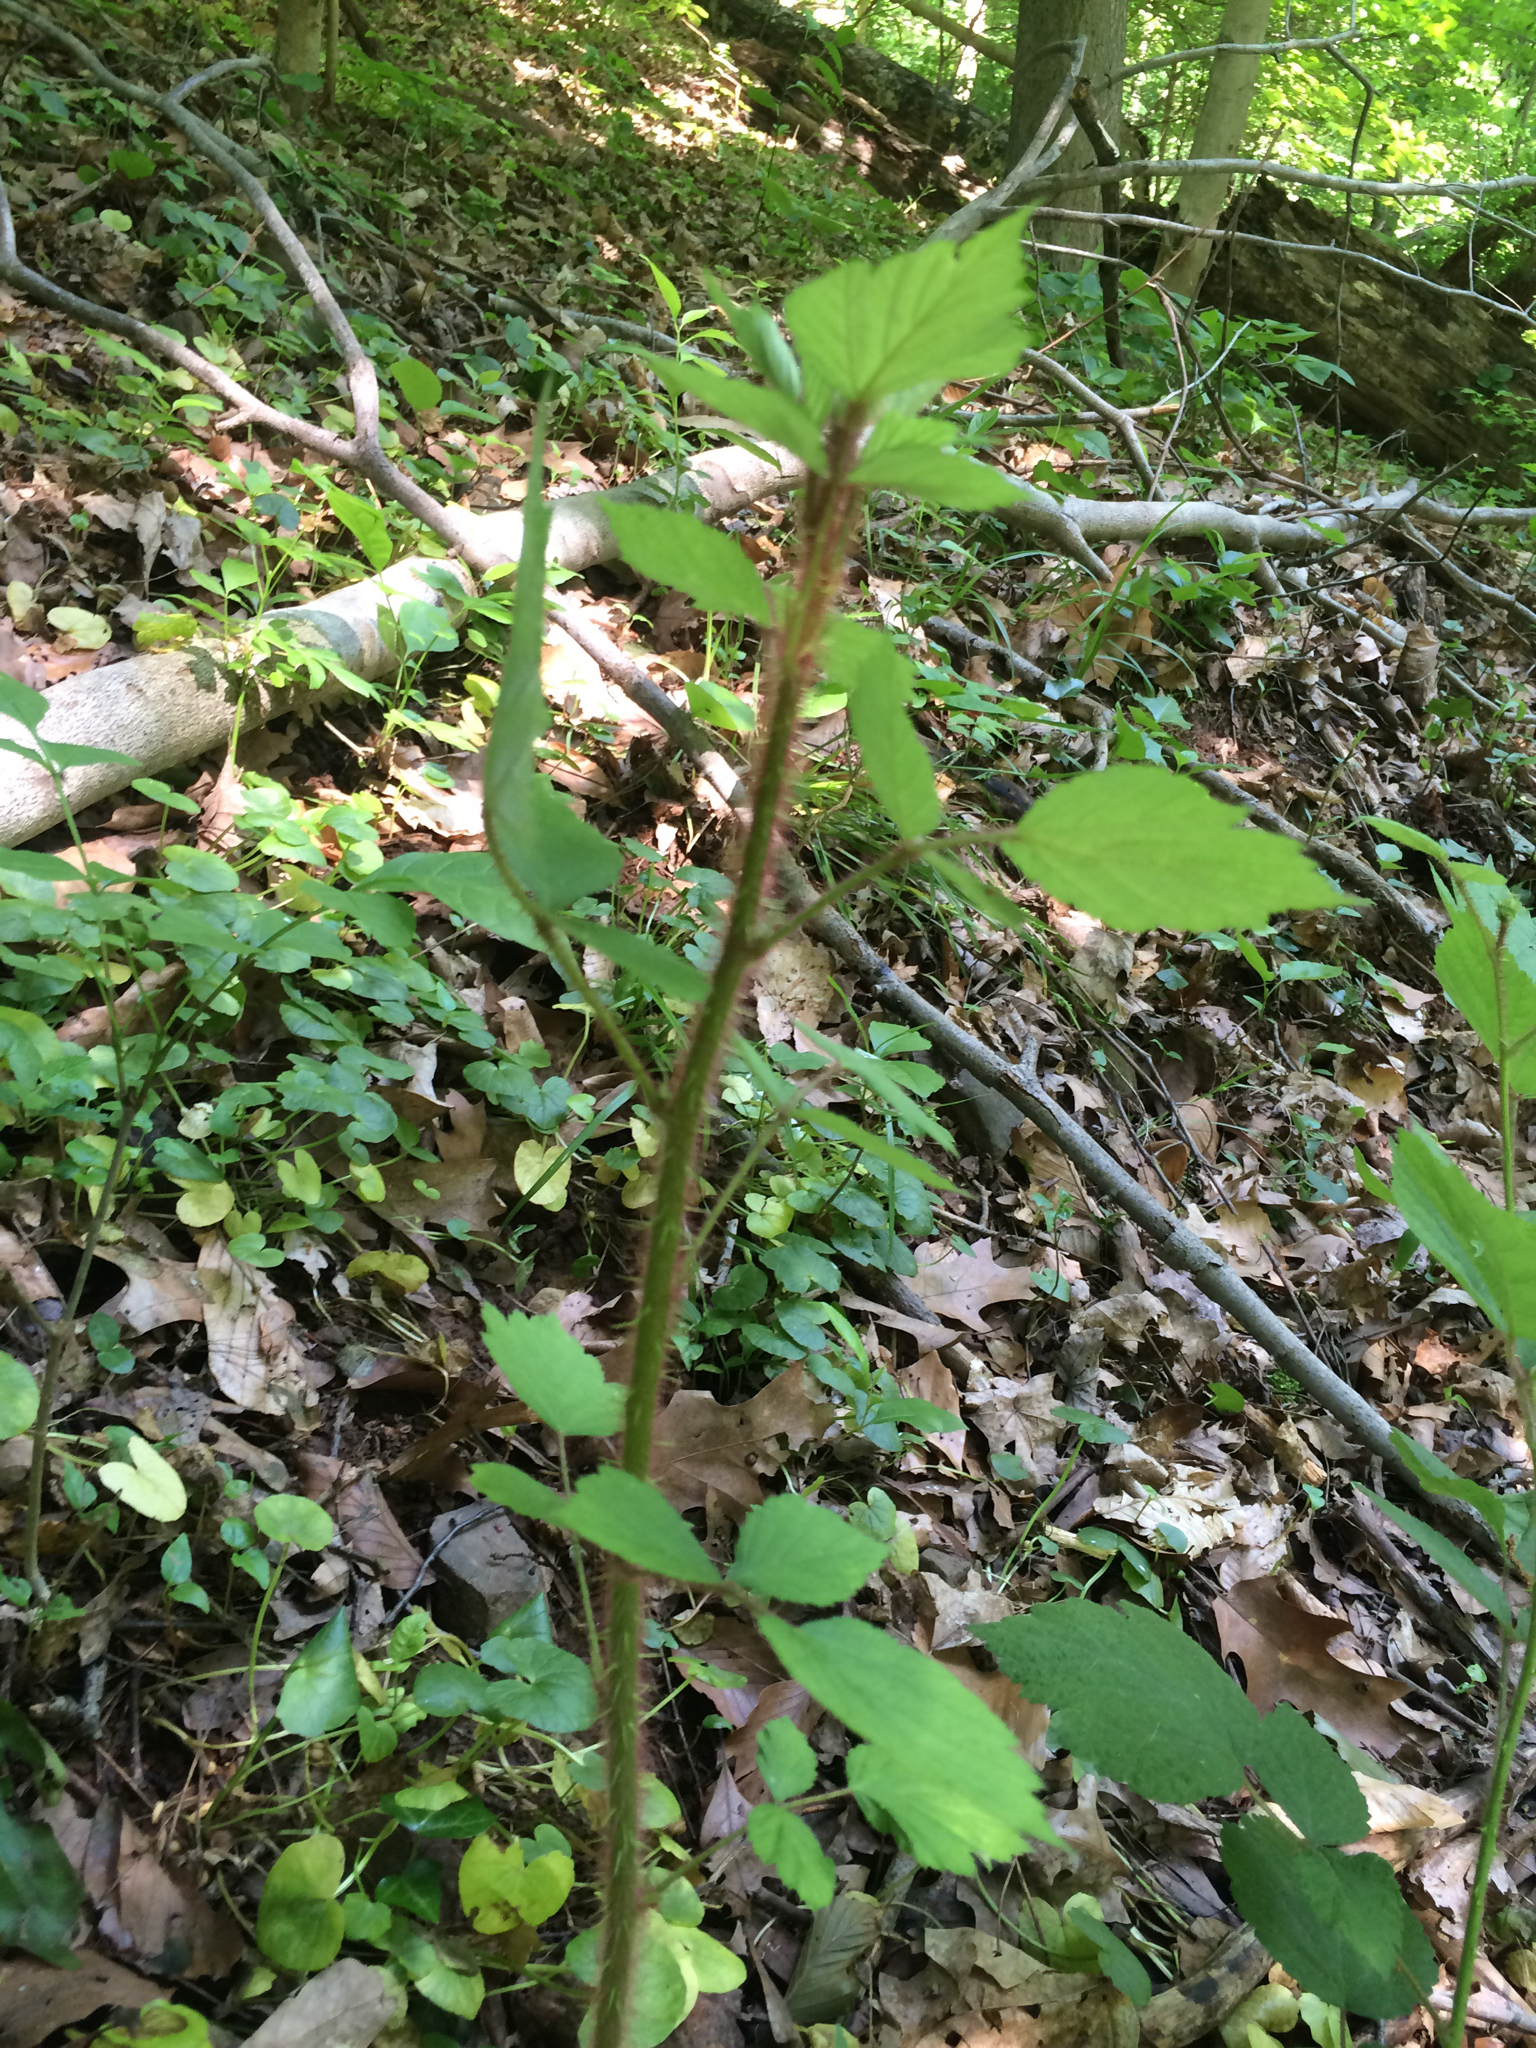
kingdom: Plantae
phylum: Tracheophyta
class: Magnoliopsida
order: Rosales
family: Rosaceae
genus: Rubus
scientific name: Rubus phoenicolasius
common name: Japanese wineberry
